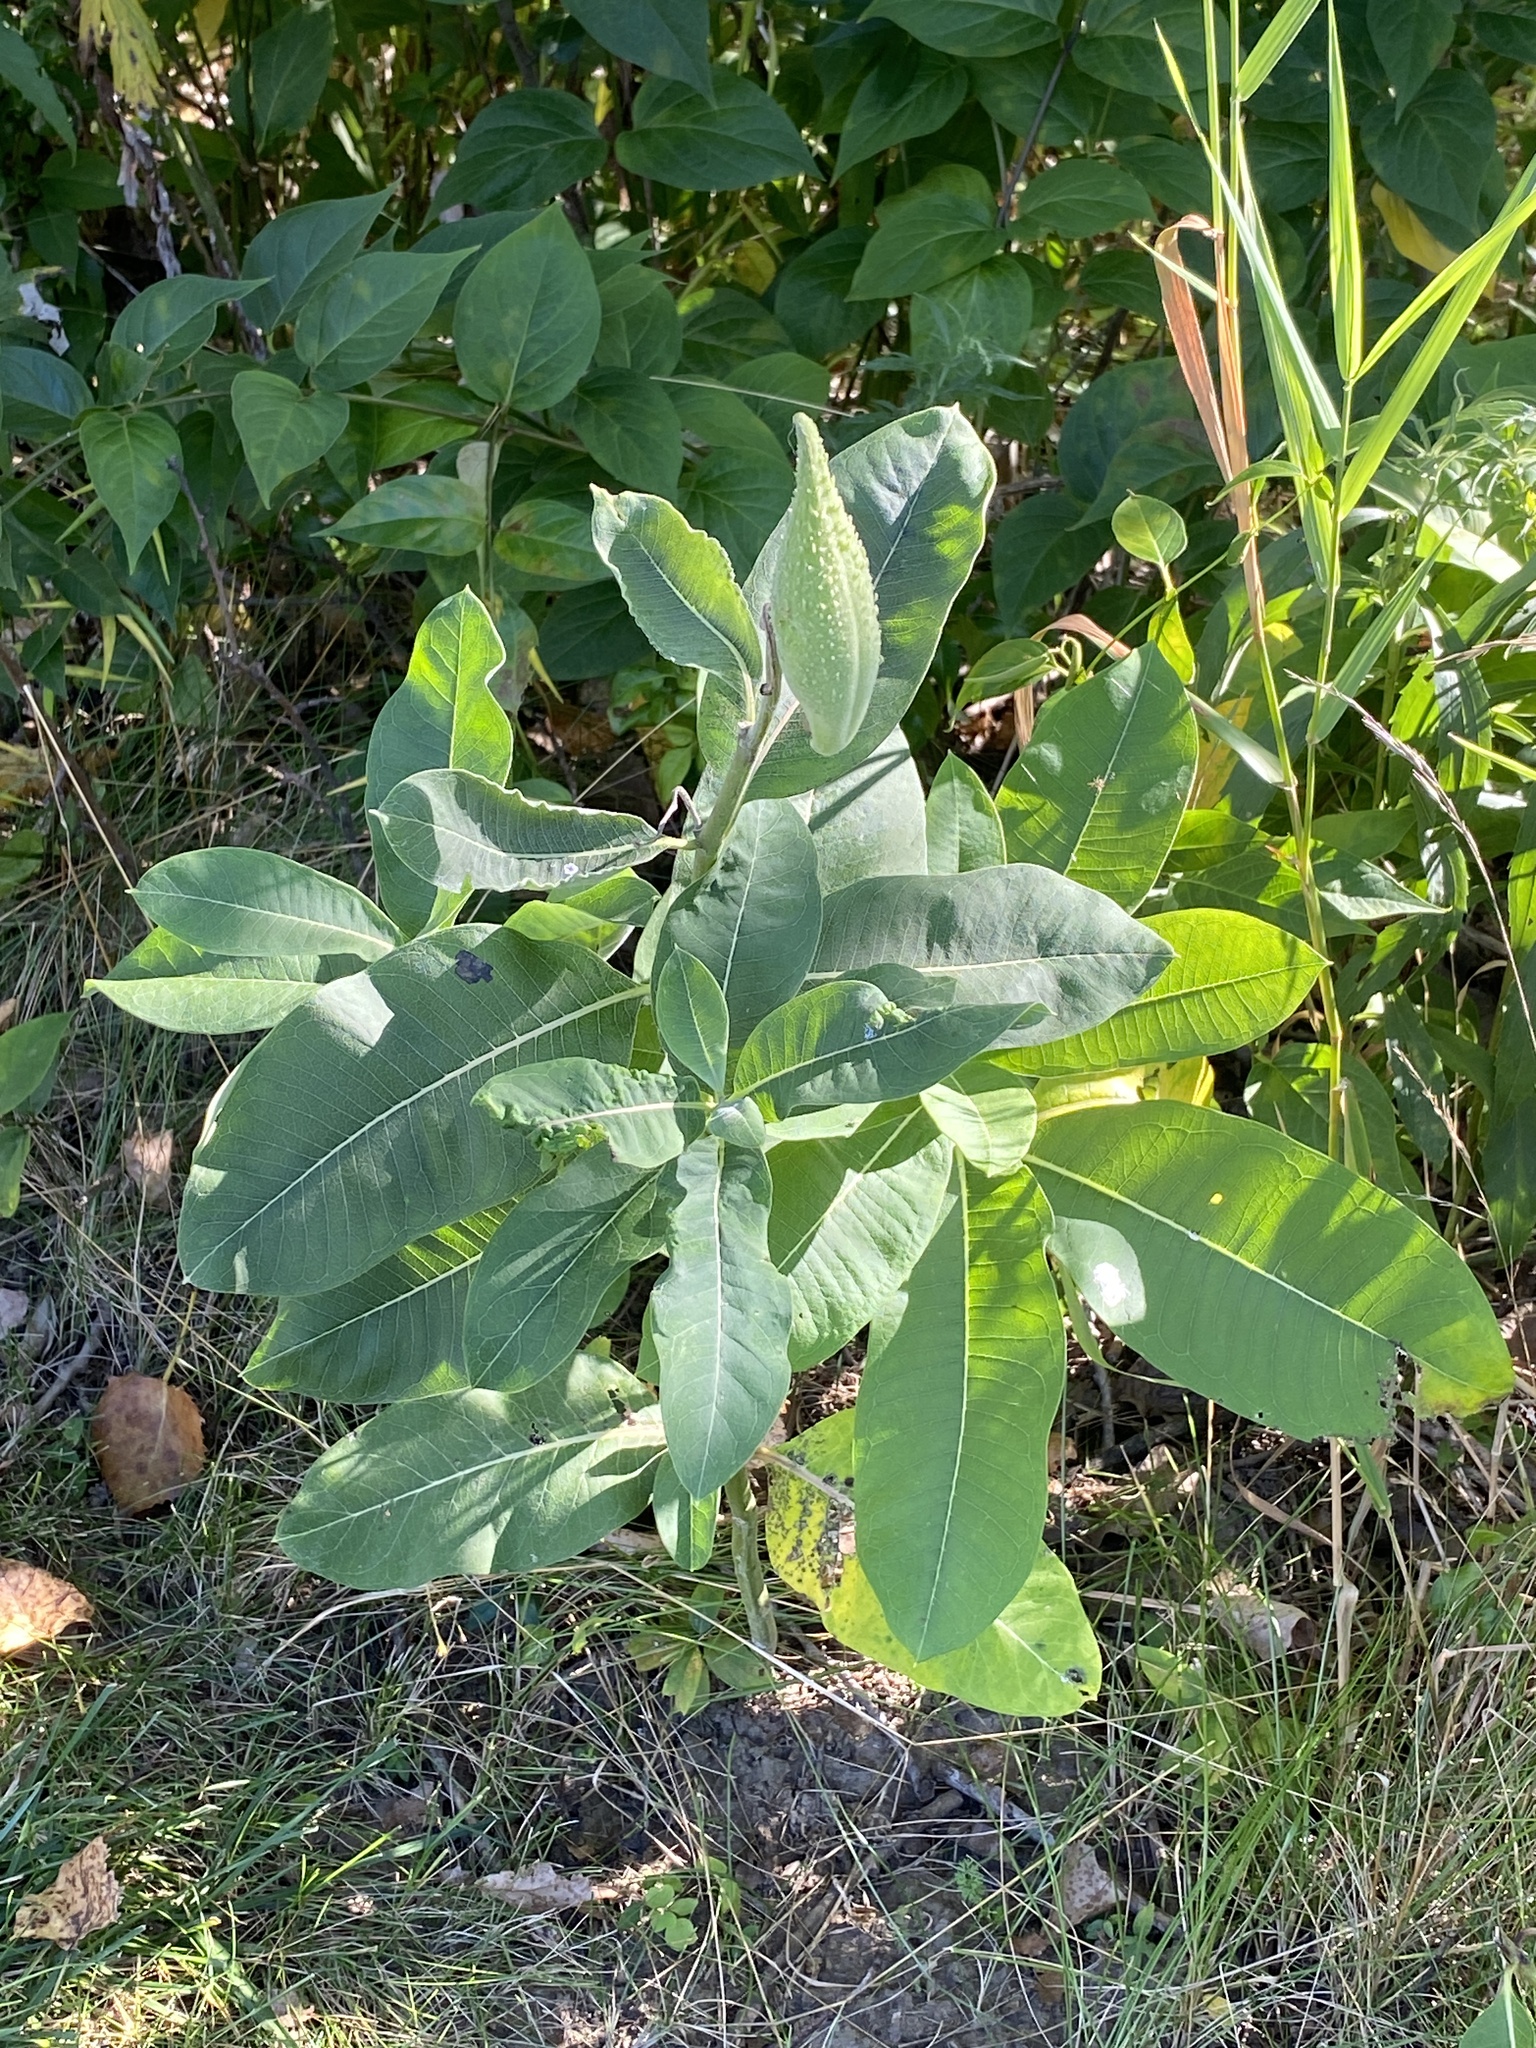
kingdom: Plantae
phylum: Tracheophyta
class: Magnoliopsida
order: Gentianales
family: Apocynaceae
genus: Asclepias
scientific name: Asclepias syriaca
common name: Common milkweed
